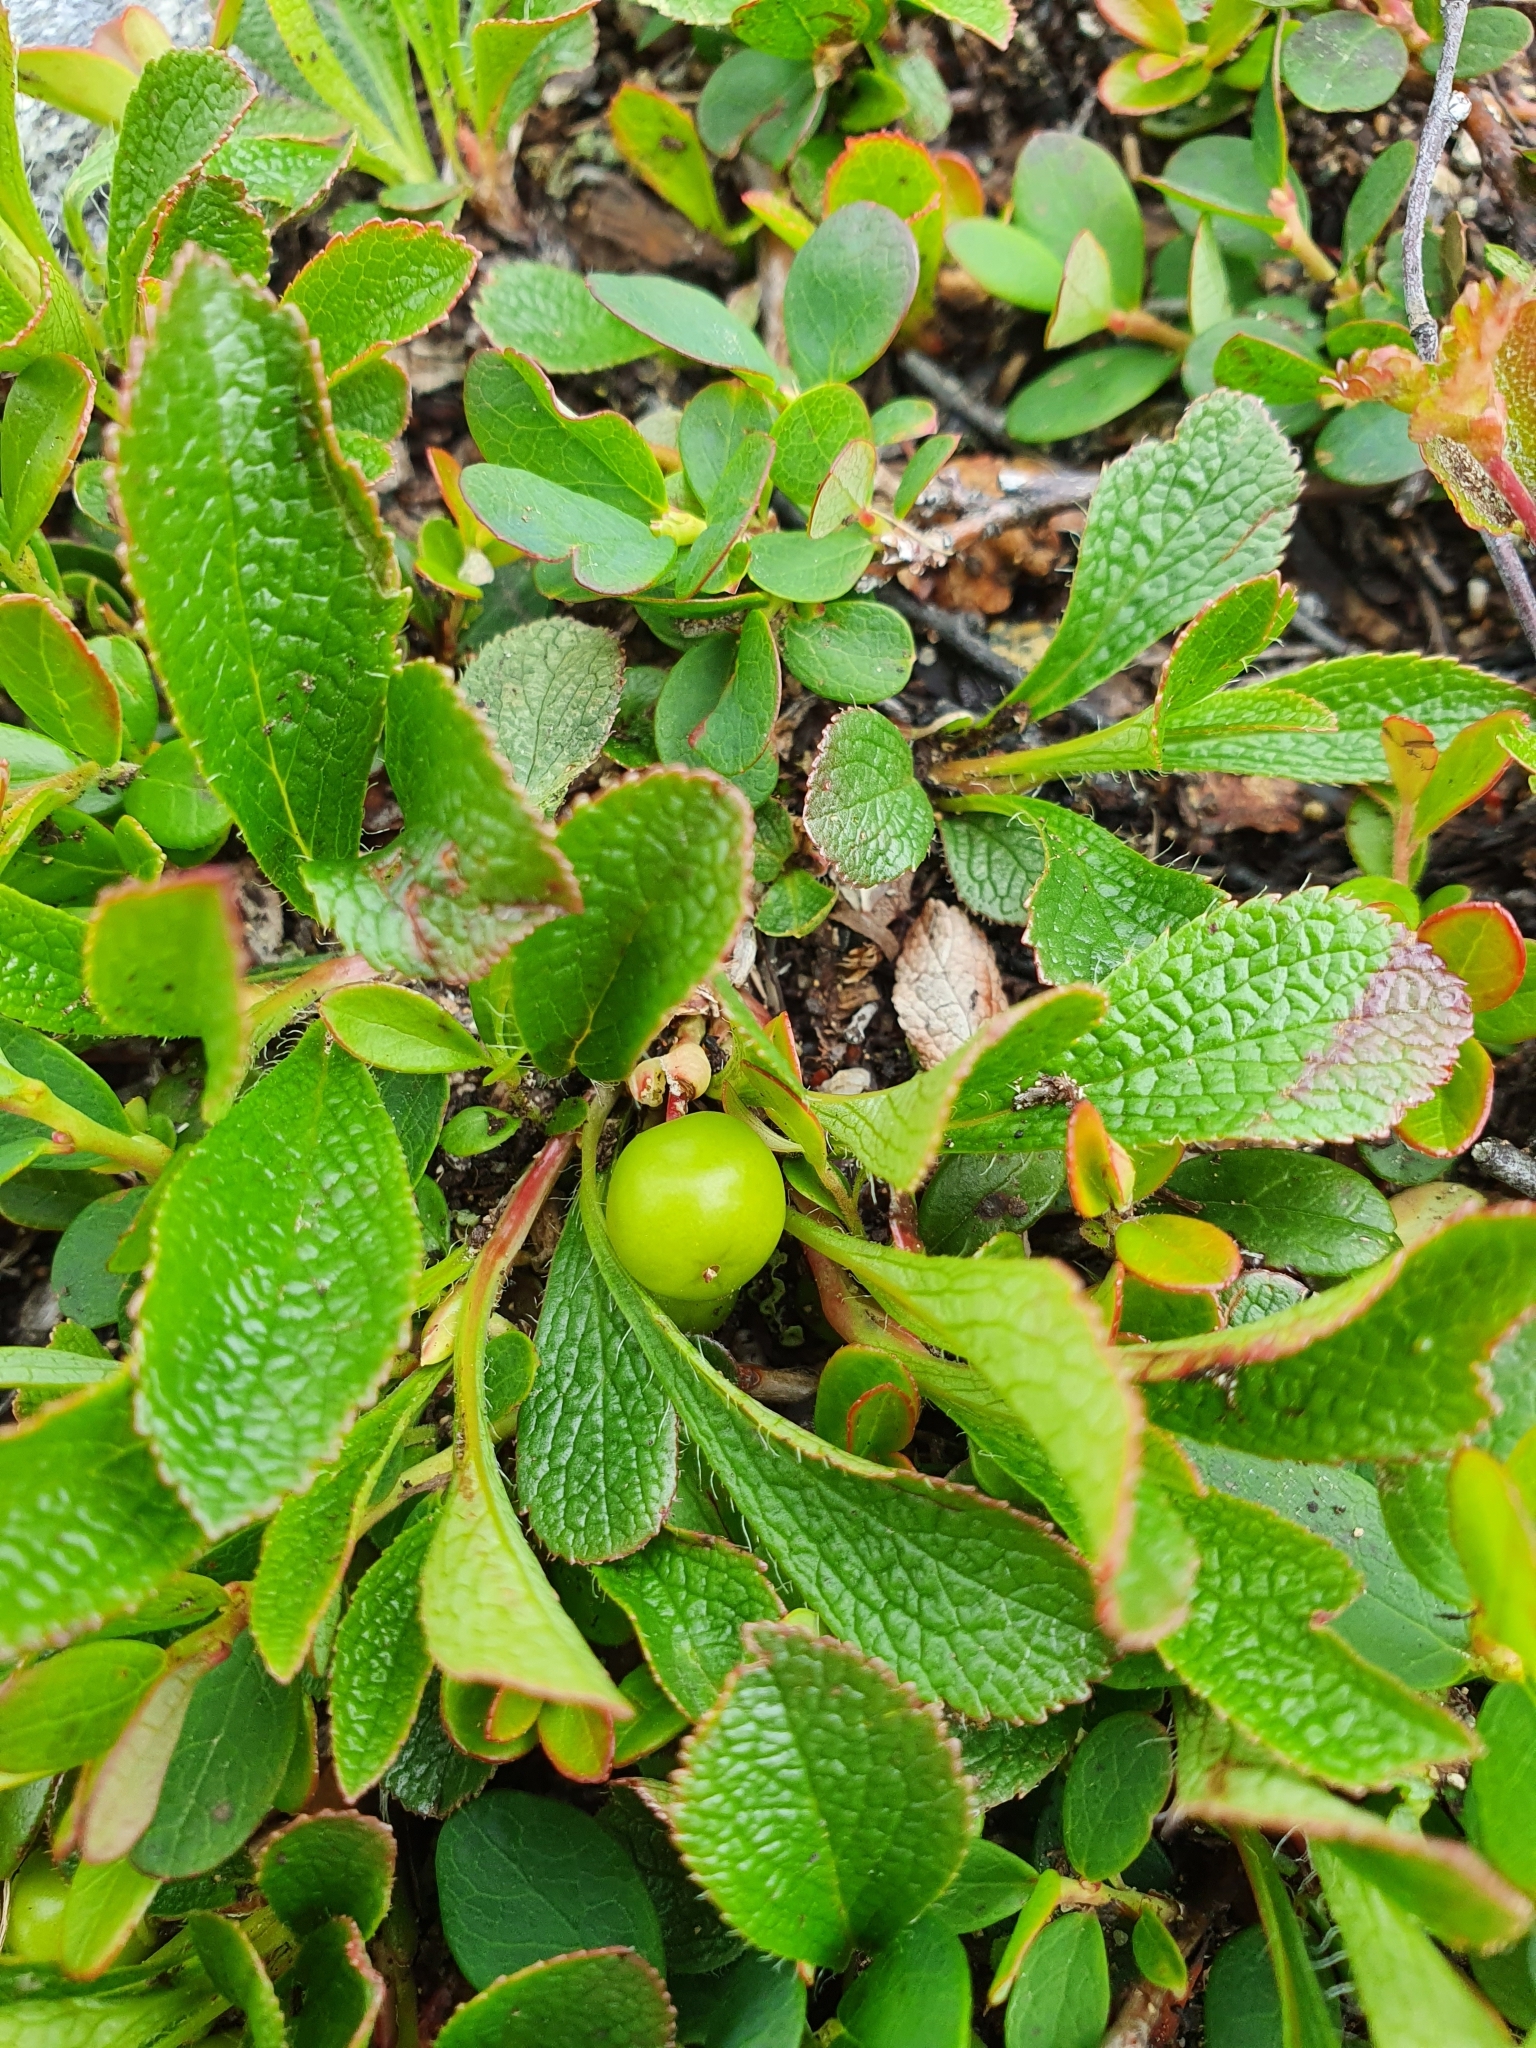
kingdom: Plantae
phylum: Tracheophyta
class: Magnoliopsida
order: Ericales
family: Ericaceae
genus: Arctostaphylos
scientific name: Arctostaphylos alpinus
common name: Alpine bearberry
